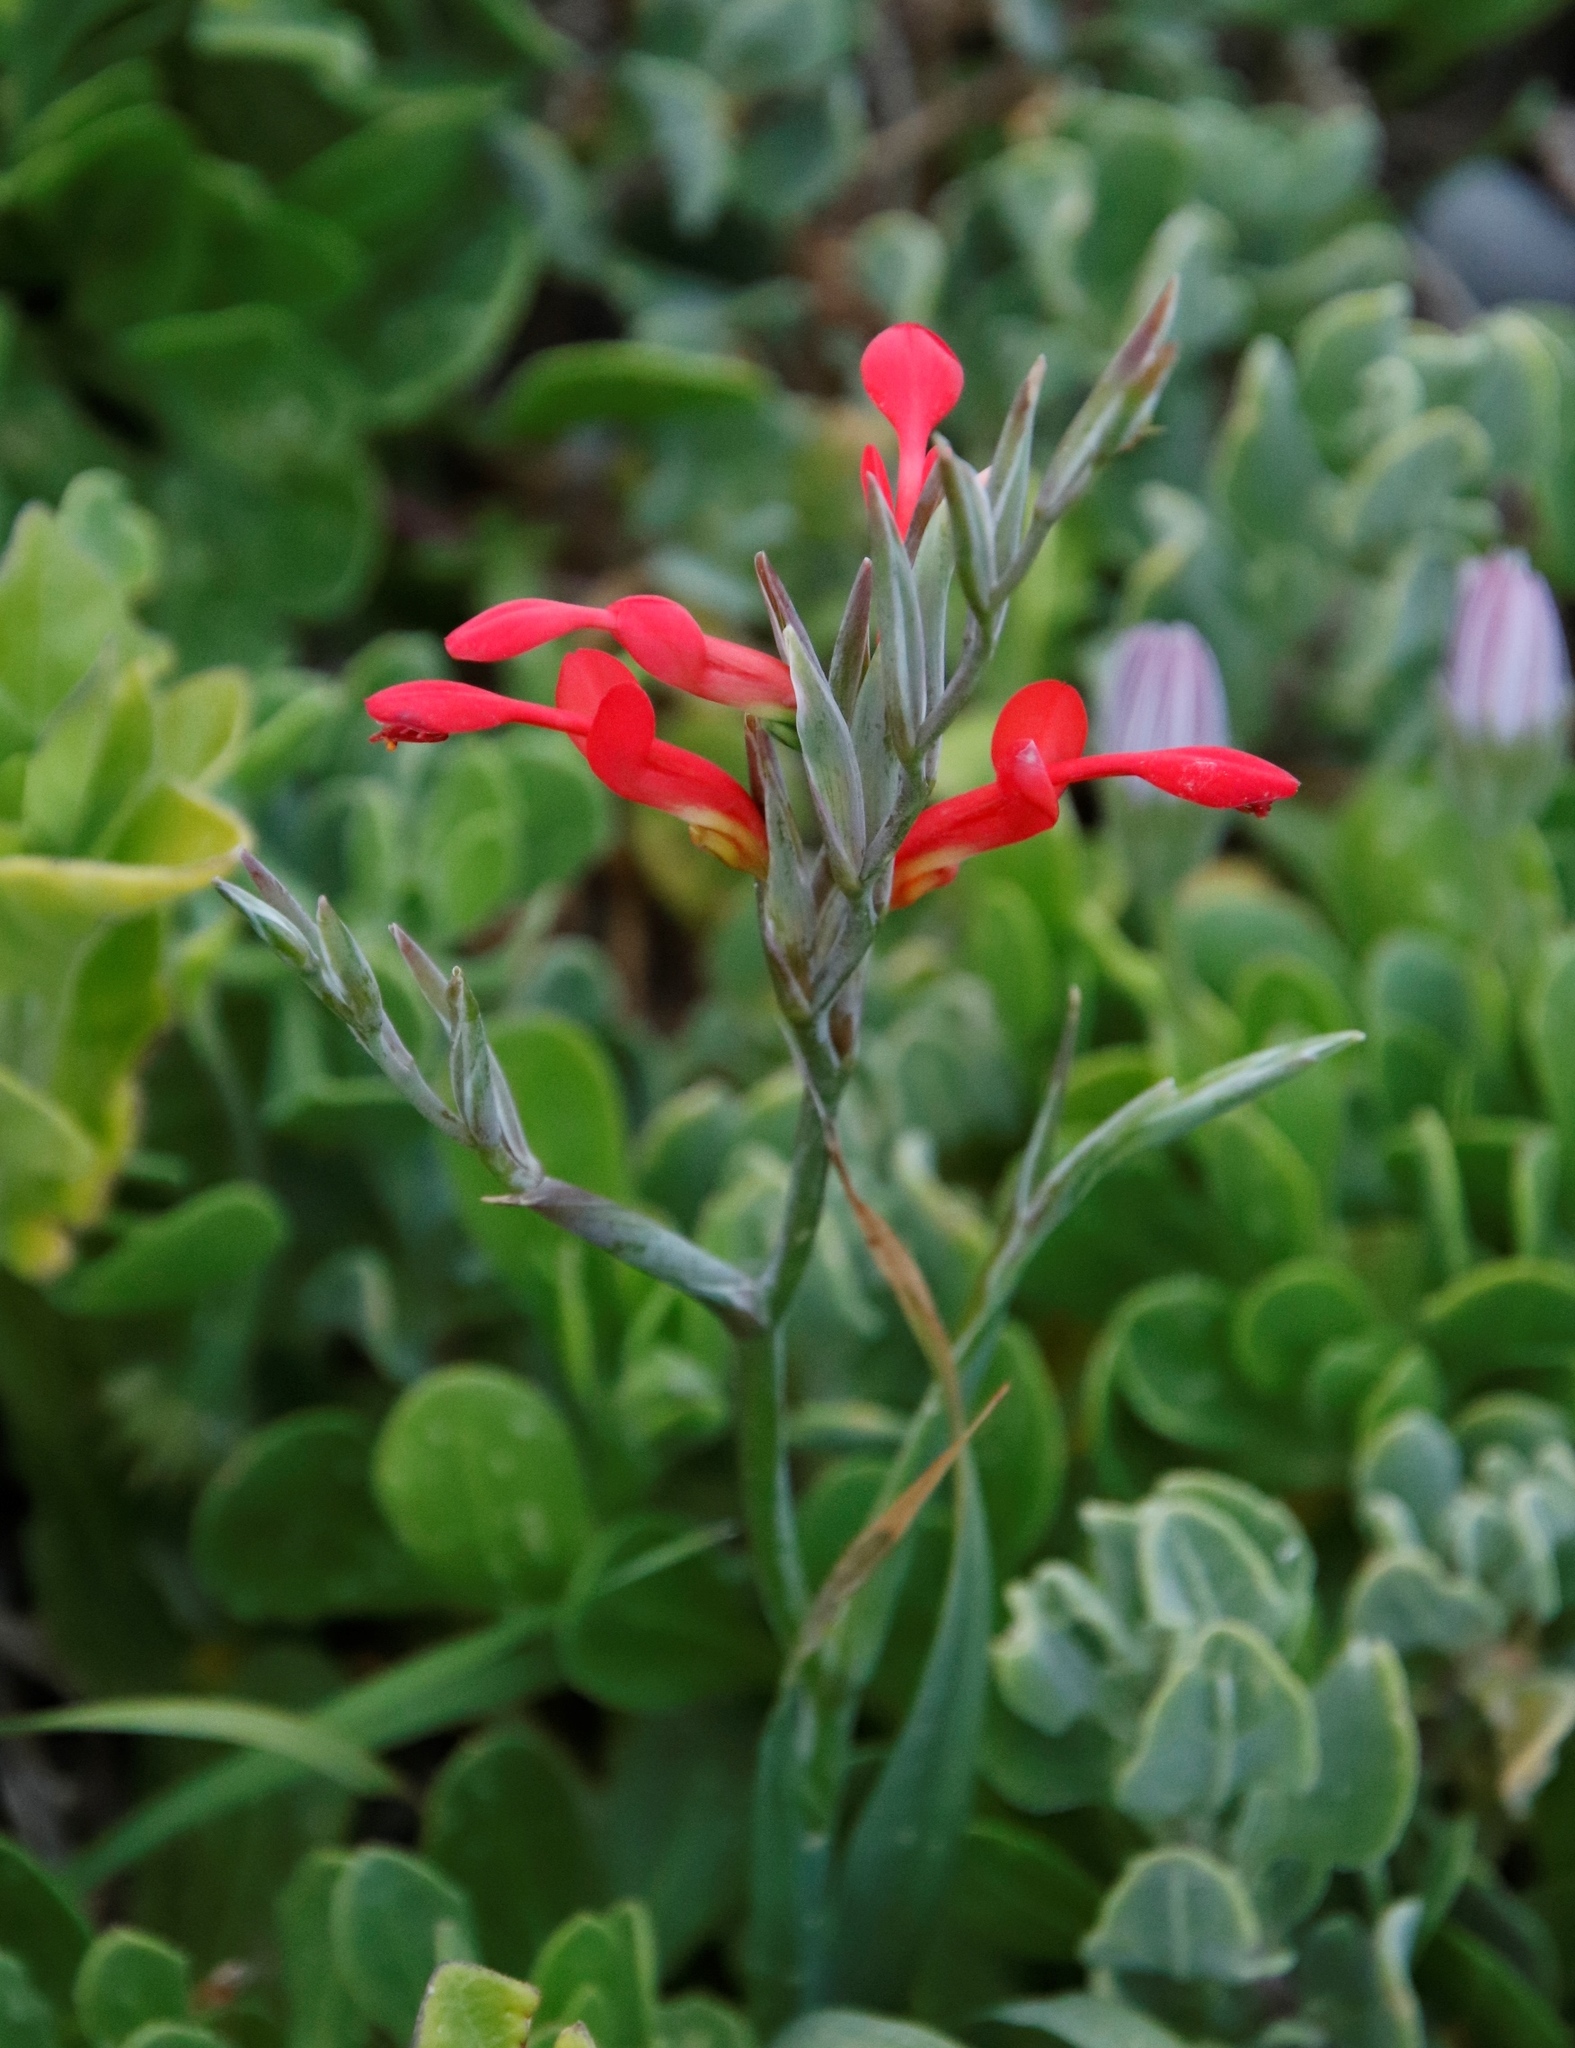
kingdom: Plantae
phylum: Tracheophyta
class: Liliopsida
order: Asparagales
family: Iridaceae
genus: Gladiolus
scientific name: Gladiolus cunonius
